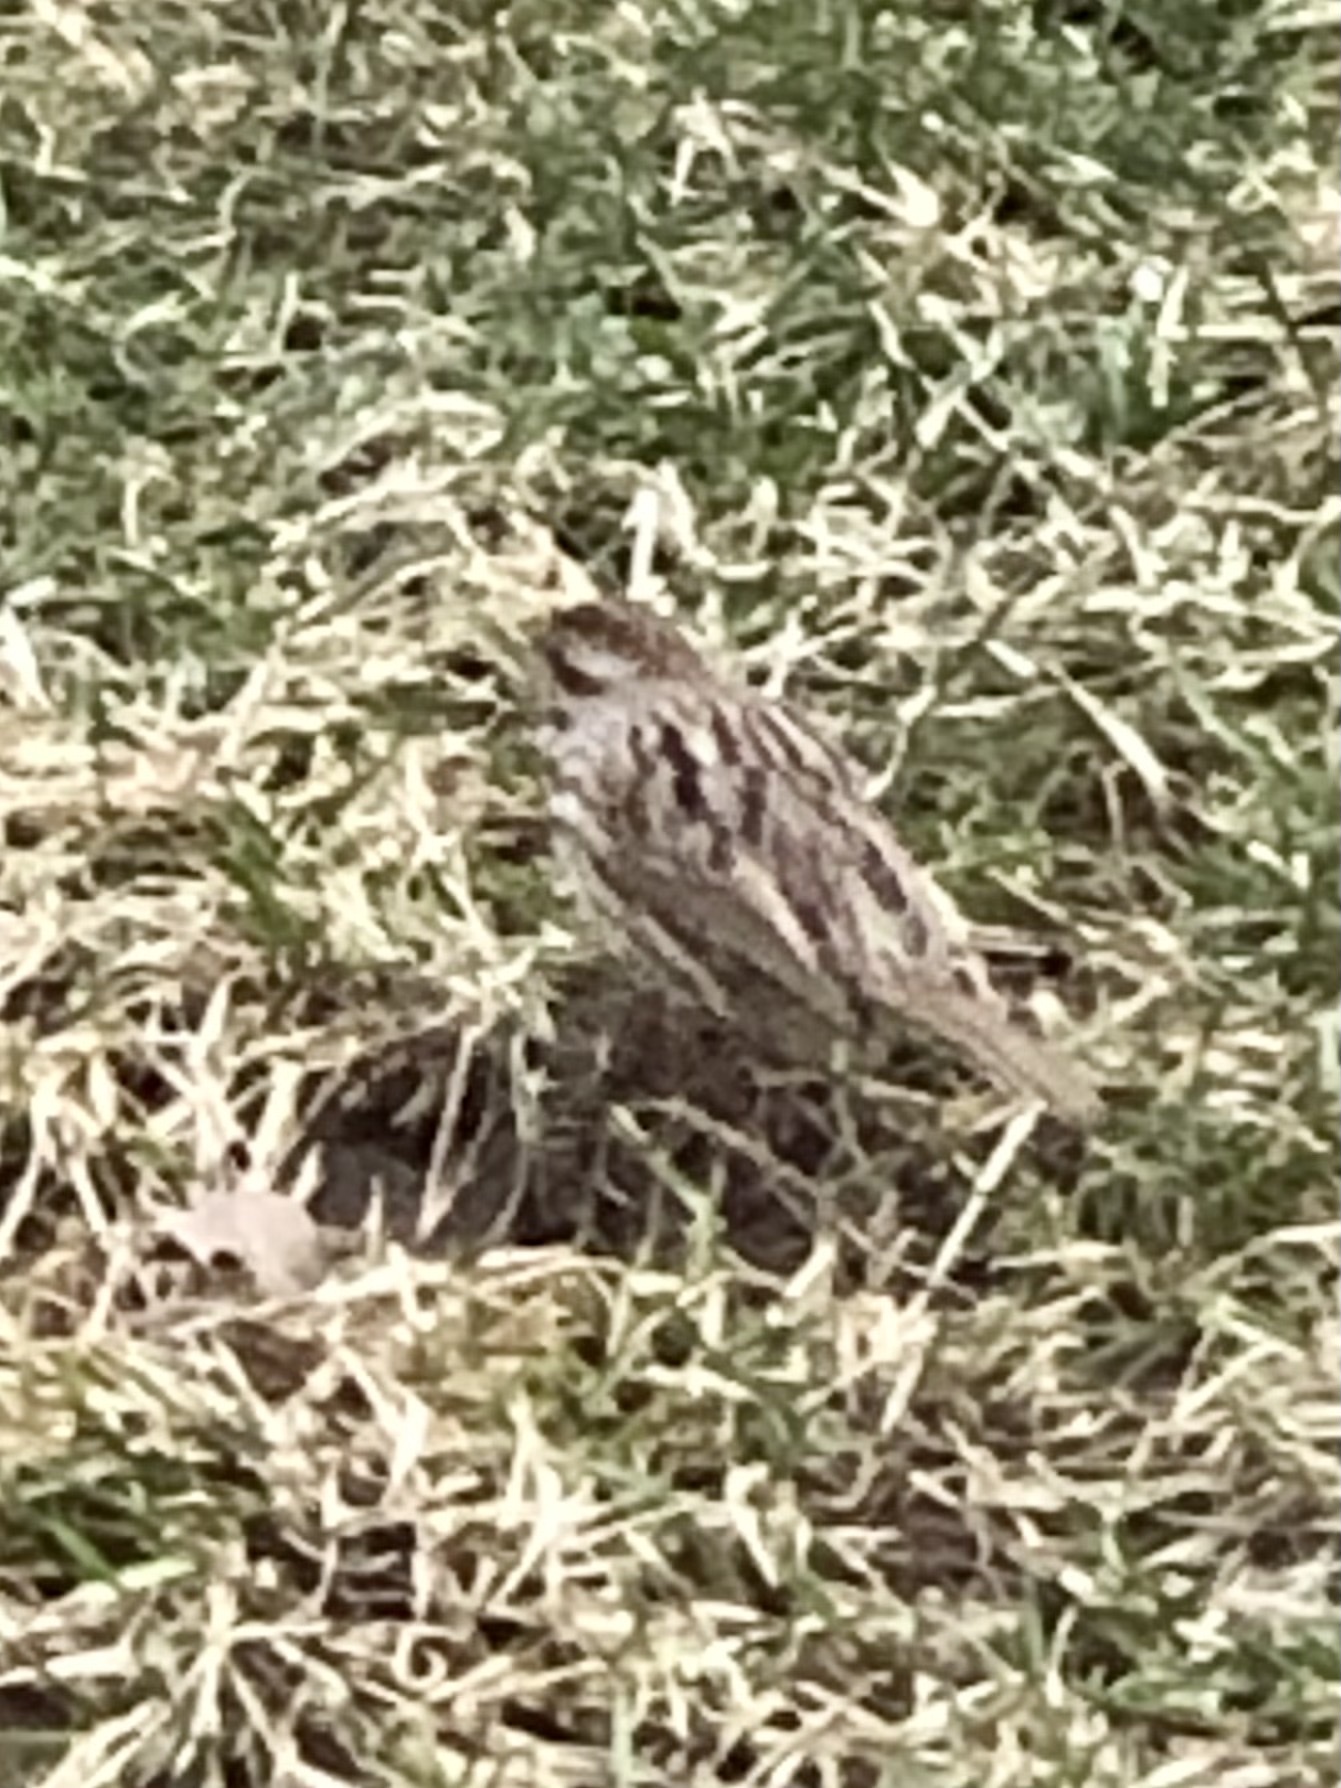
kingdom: Animalia
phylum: Chordata
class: Aves
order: Passeriformes
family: Passerellidae
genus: Melospiza
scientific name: Melospiza melodia
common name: Song sparrow
